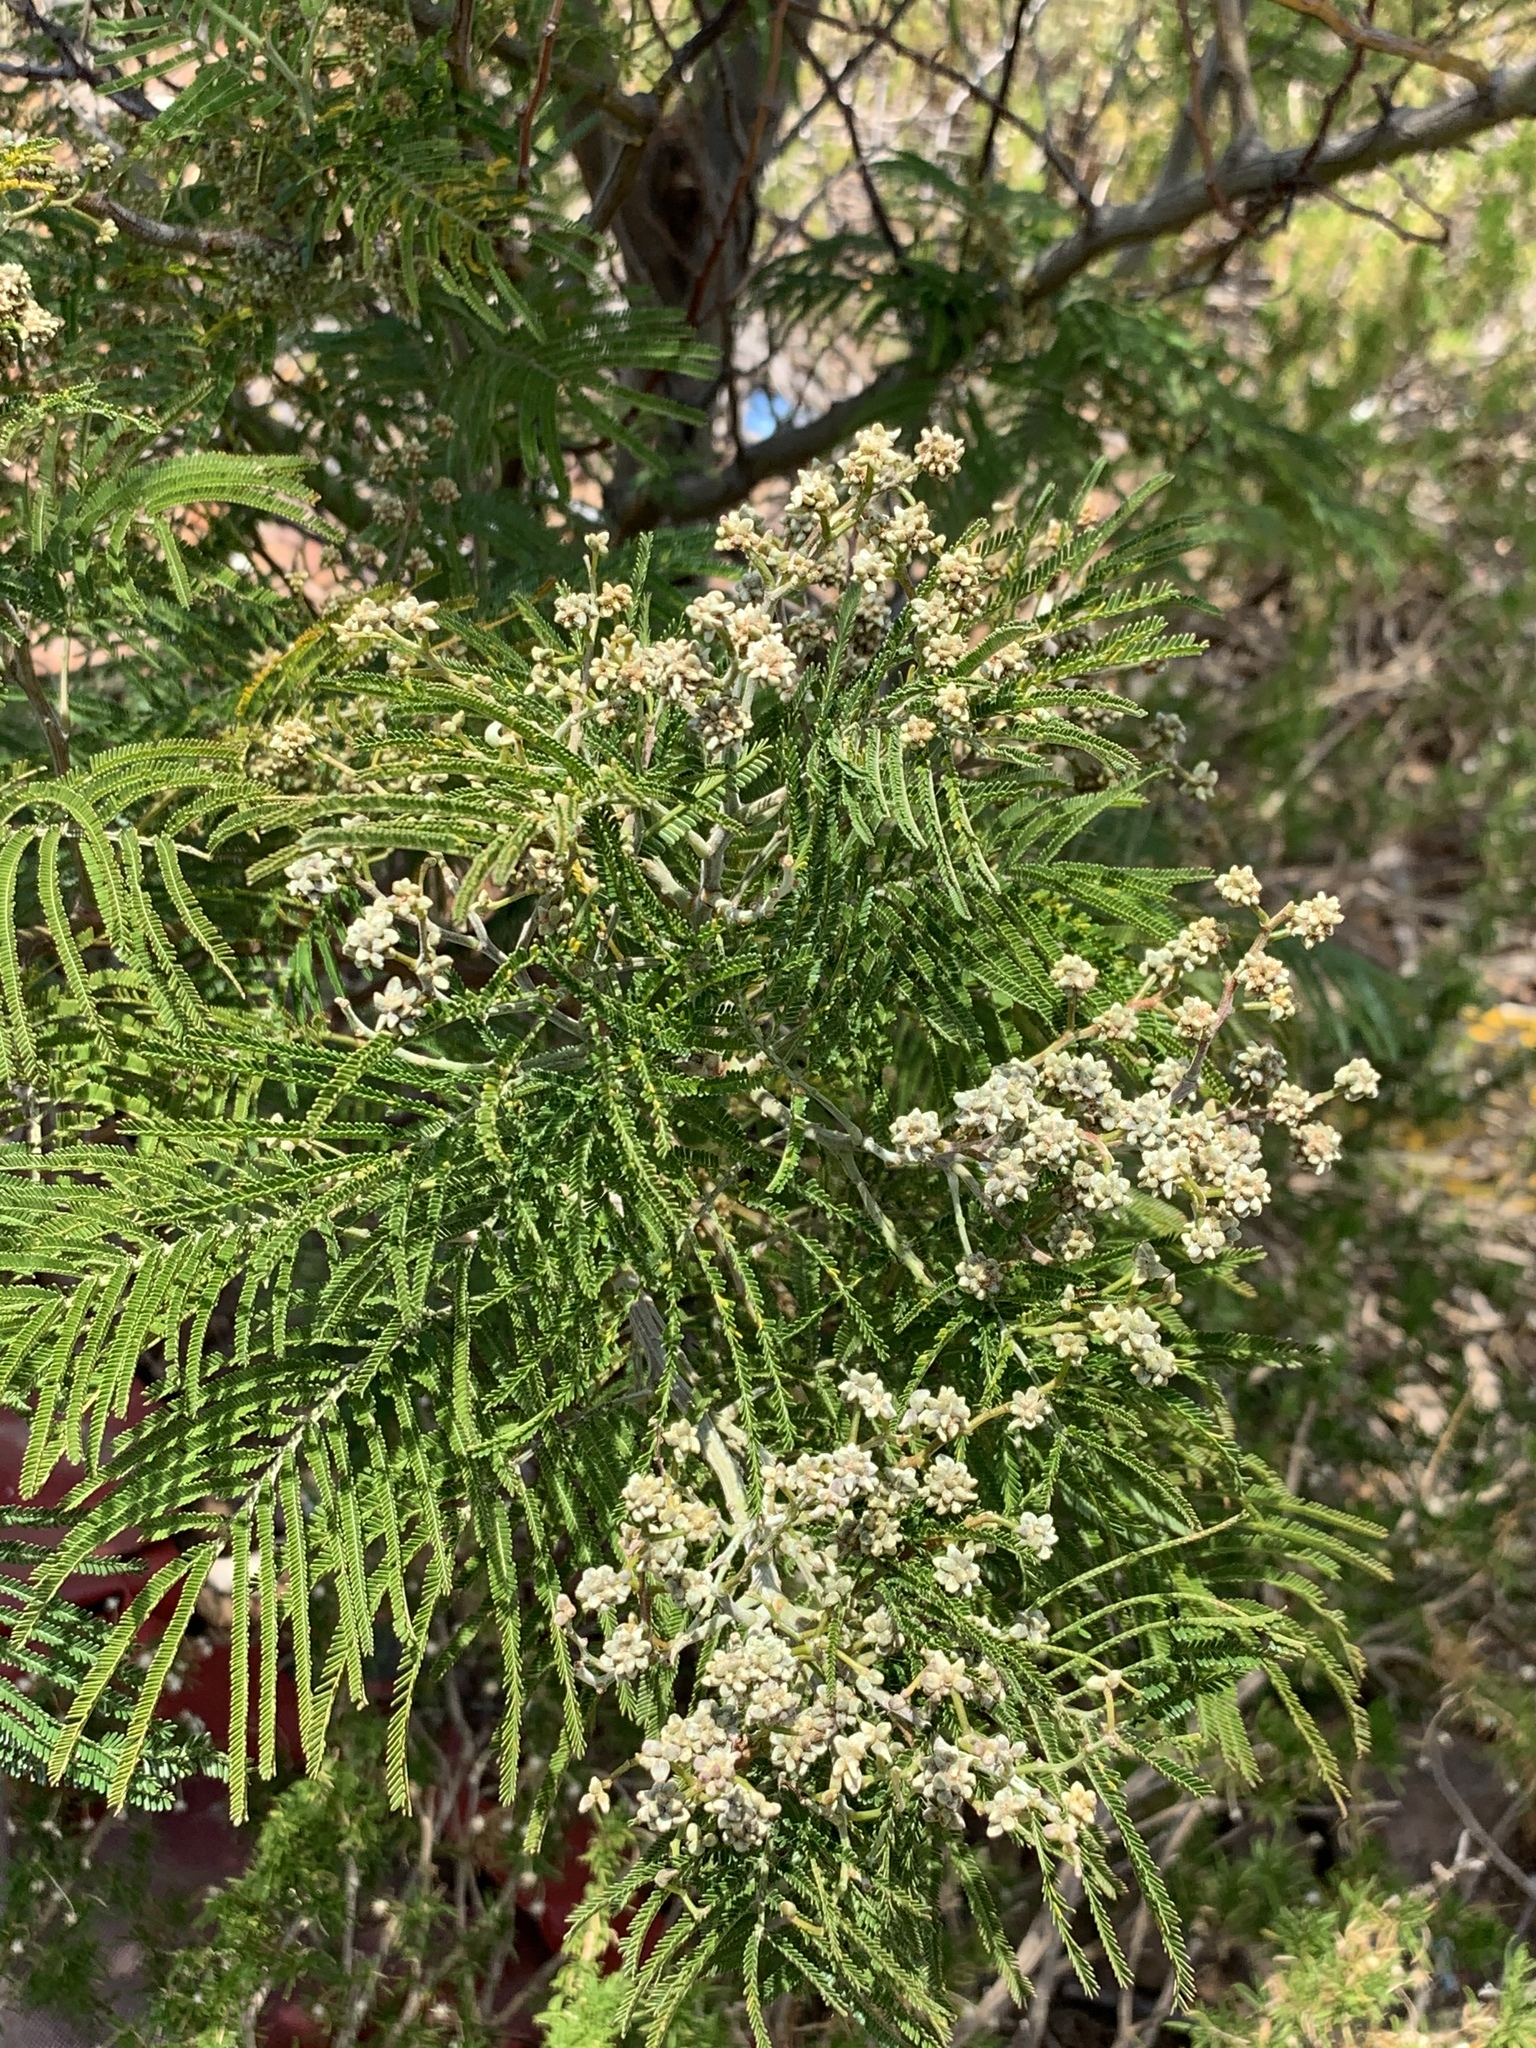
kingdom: Plantae
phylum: Tracheophyta
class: Magnoliopsida
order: Fabales
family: Fabaceae
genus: Acacia
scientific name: Acacia mearnsii
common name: Black wattle
